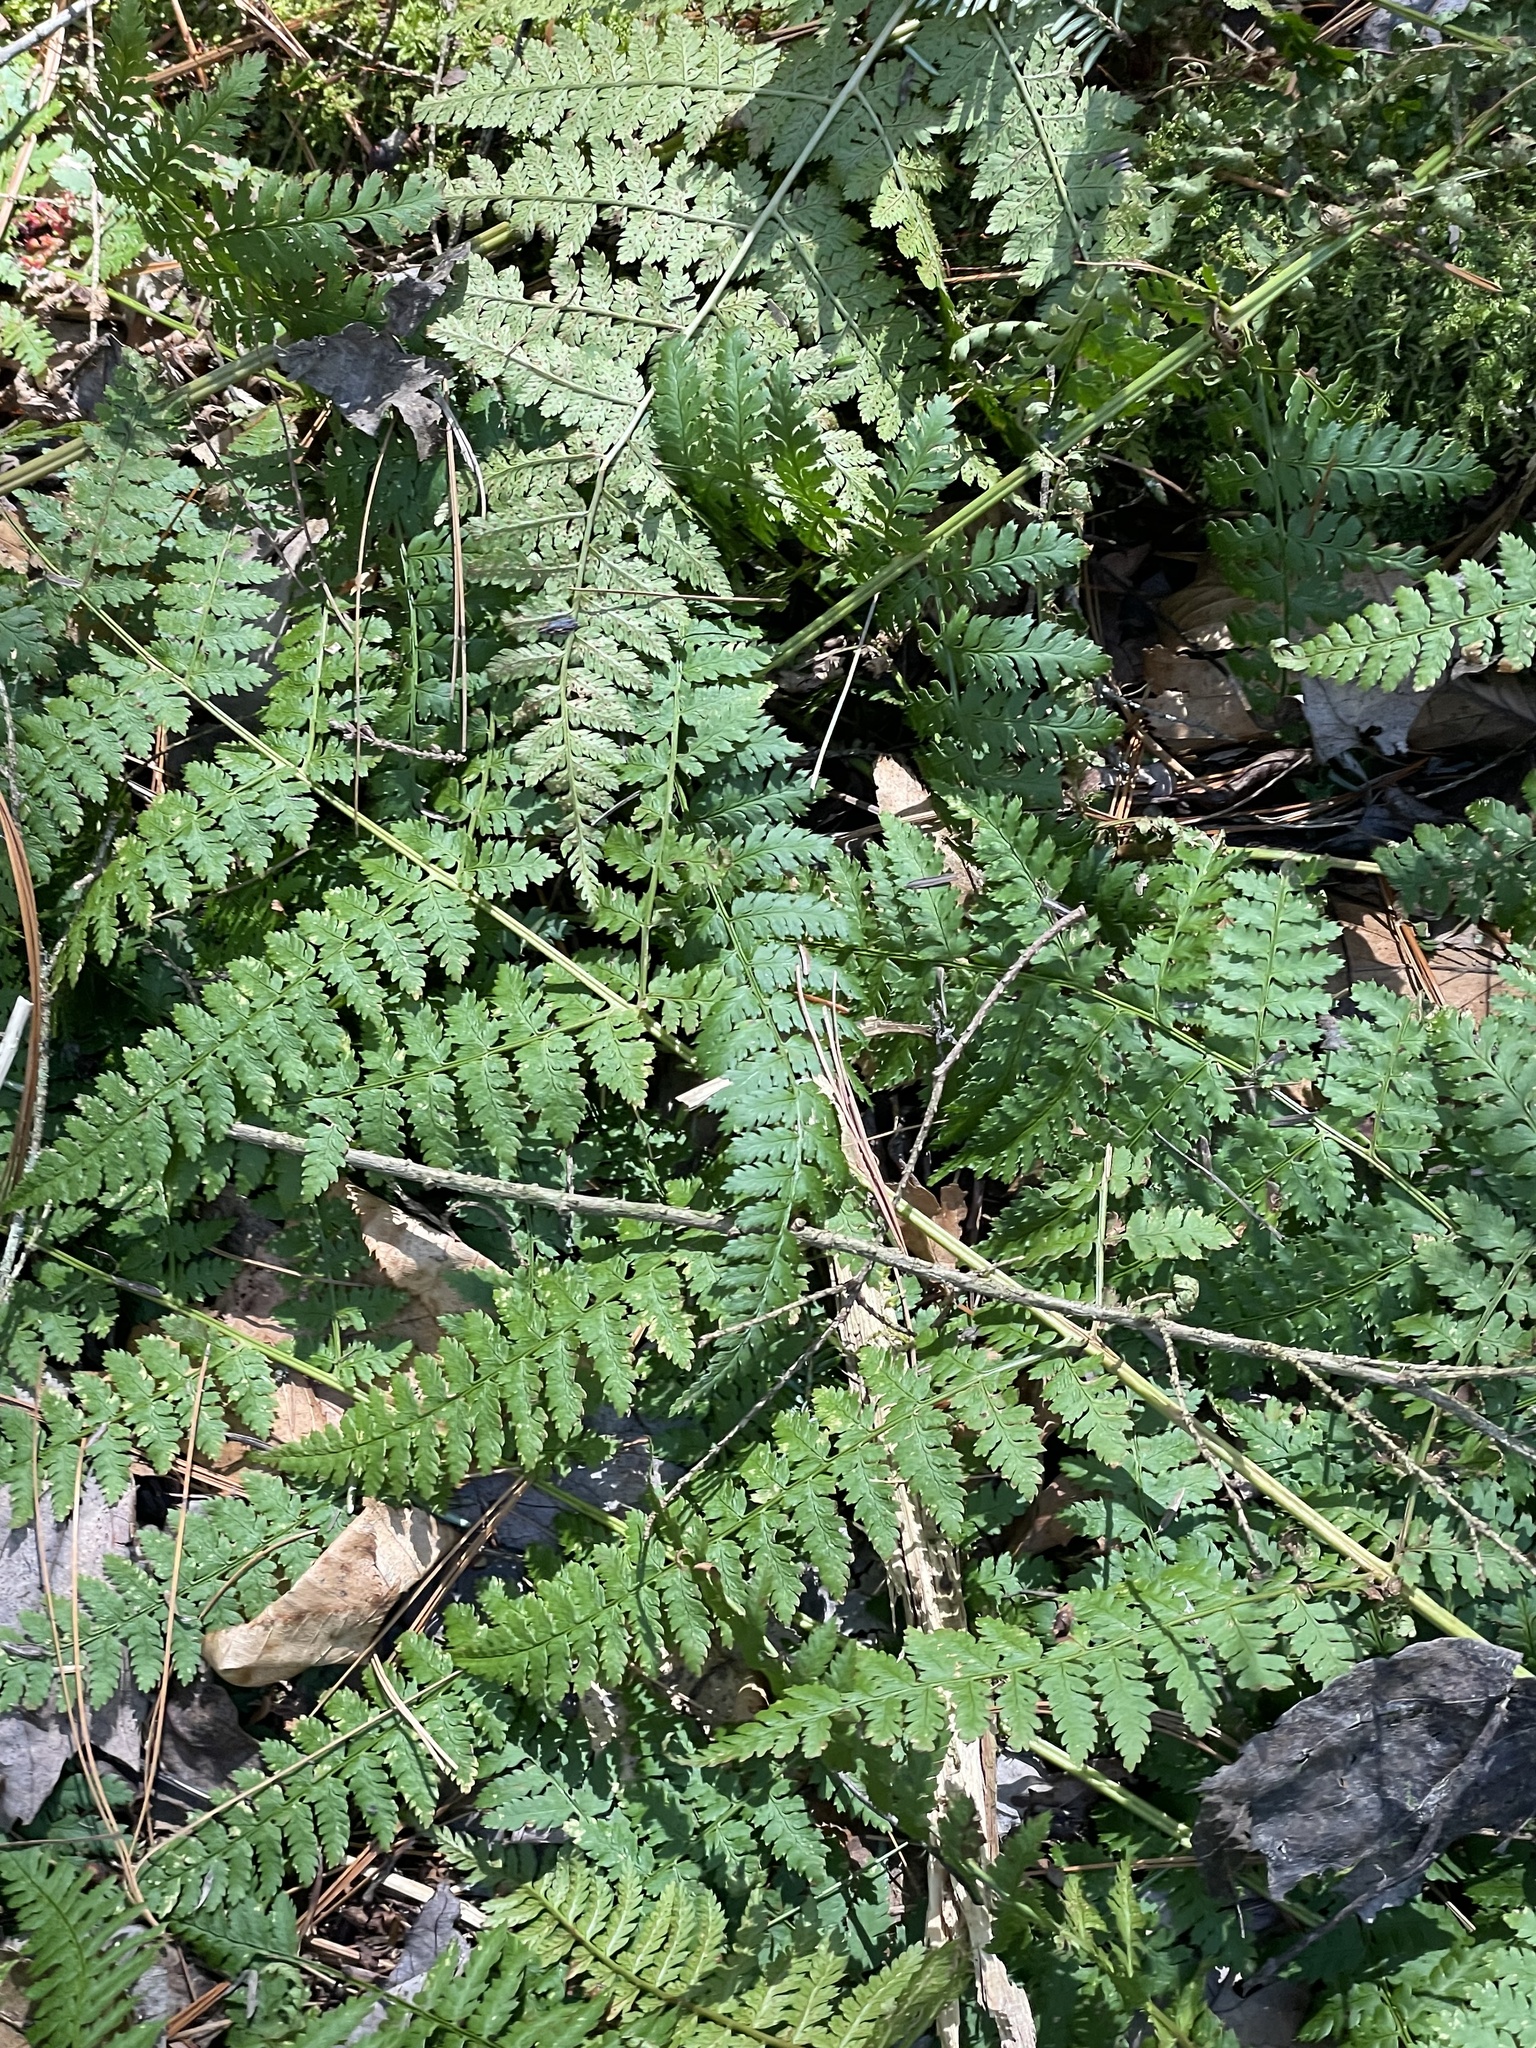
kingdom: Plantae
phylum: Tracheophyta
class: Polypodiopsida
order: Polypodiales
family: Dryopteridaceae
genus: Dryopteris
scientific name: Dryopteris intermedia
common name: Evergreen wood fern
